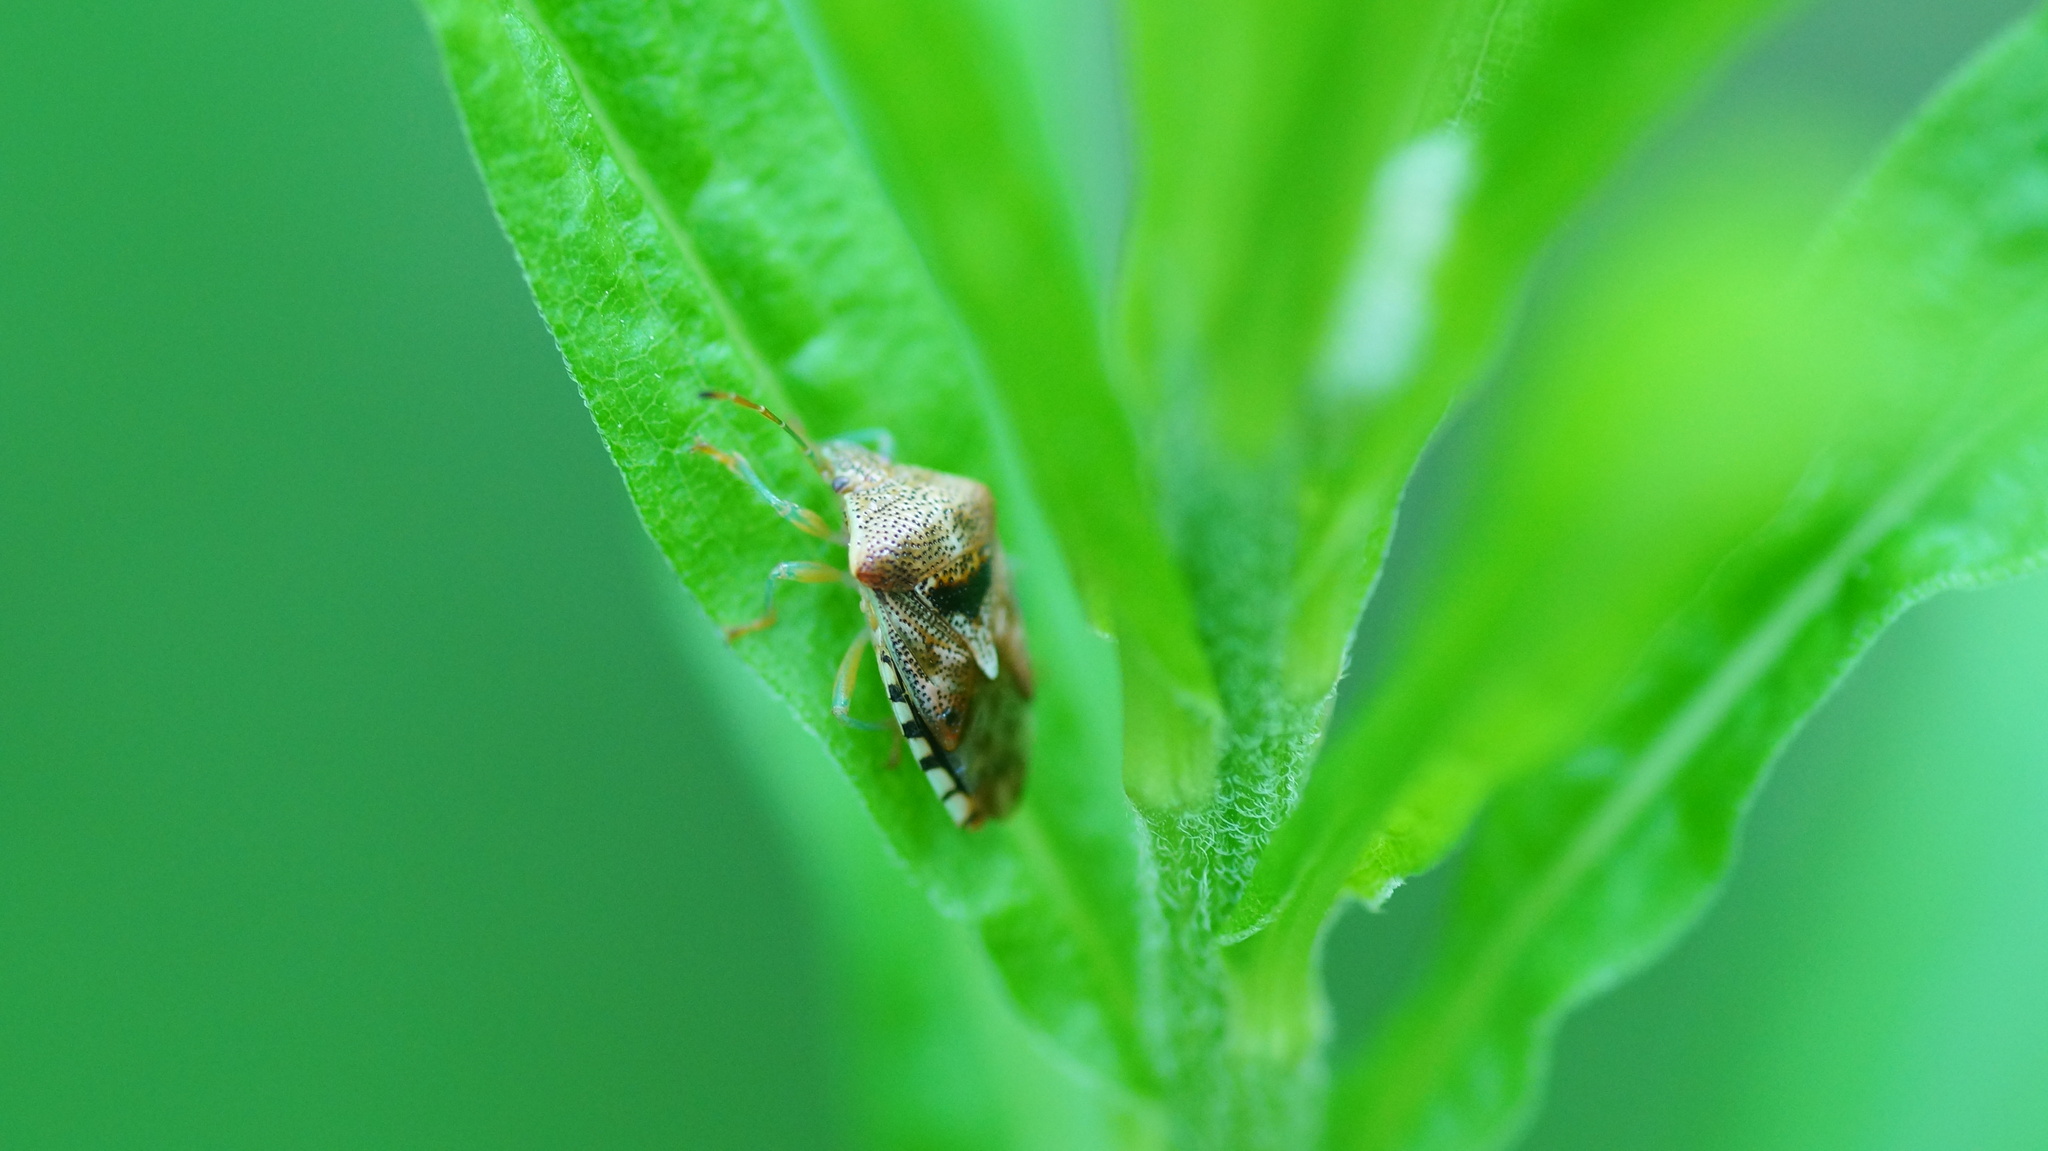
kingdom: Animalia
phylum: Arthropoda
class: Insecta
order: Hemiptera
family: Acanthosomatidae
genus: Elasmucha
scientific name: Elasmucha grisea
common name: Parent bug
